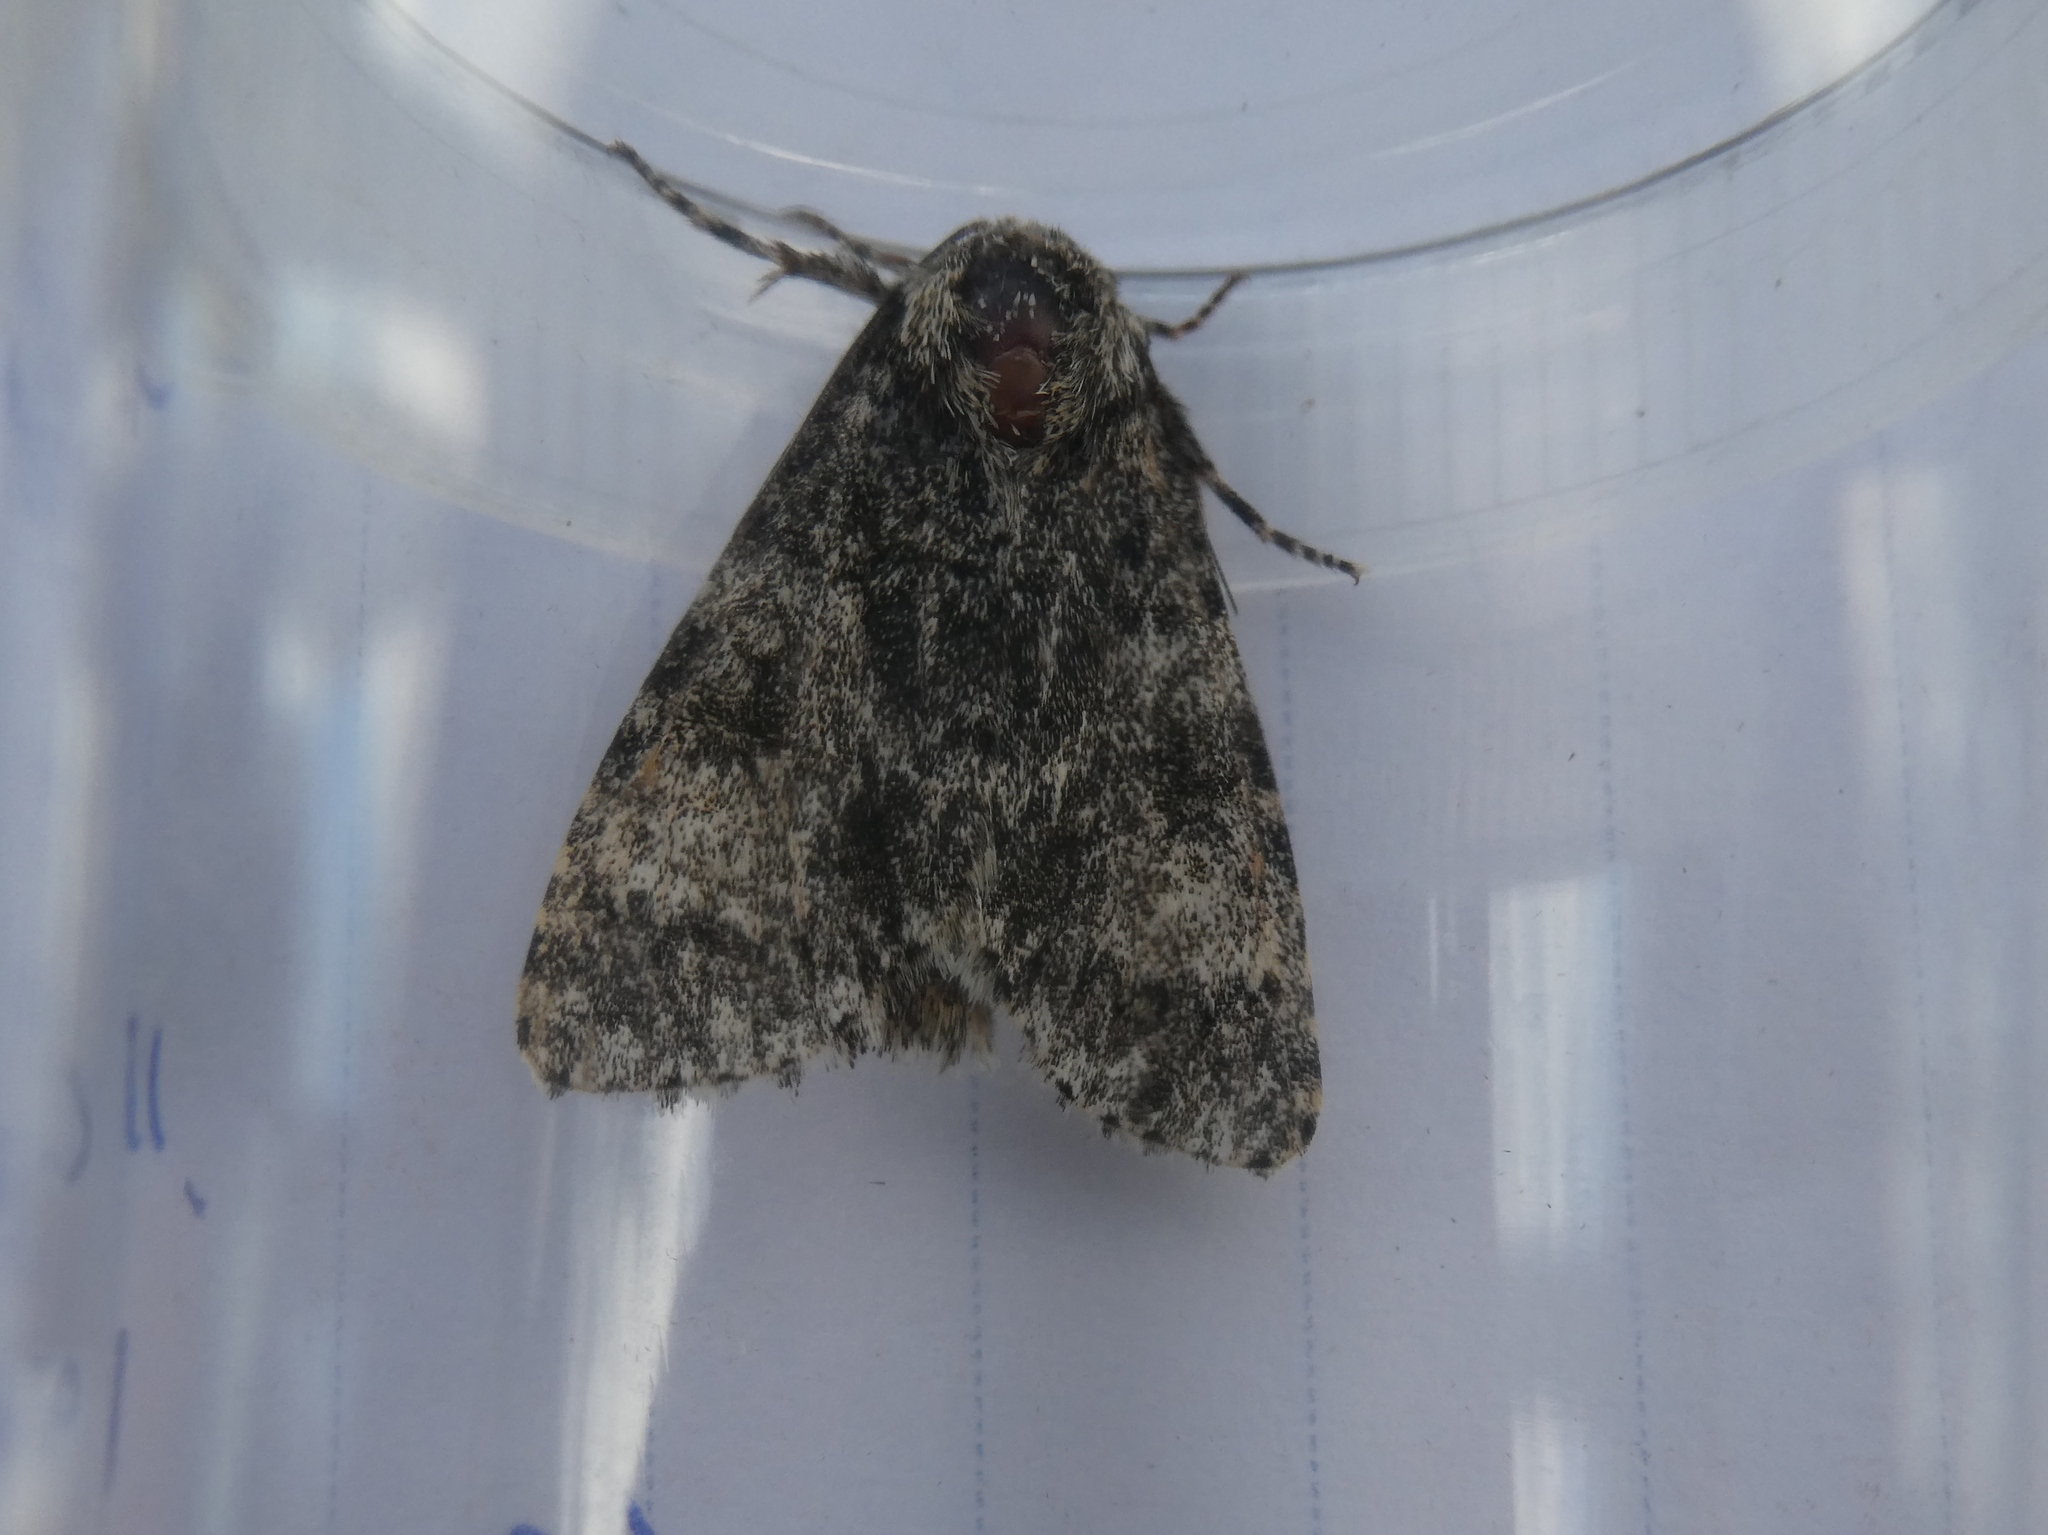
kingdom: Animalia
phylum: Arthropoda
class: Insecta
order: Lepidoptera
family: Noctuidae
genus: Acronicta
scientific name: Acronicta megacephala
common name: Poplar grey
